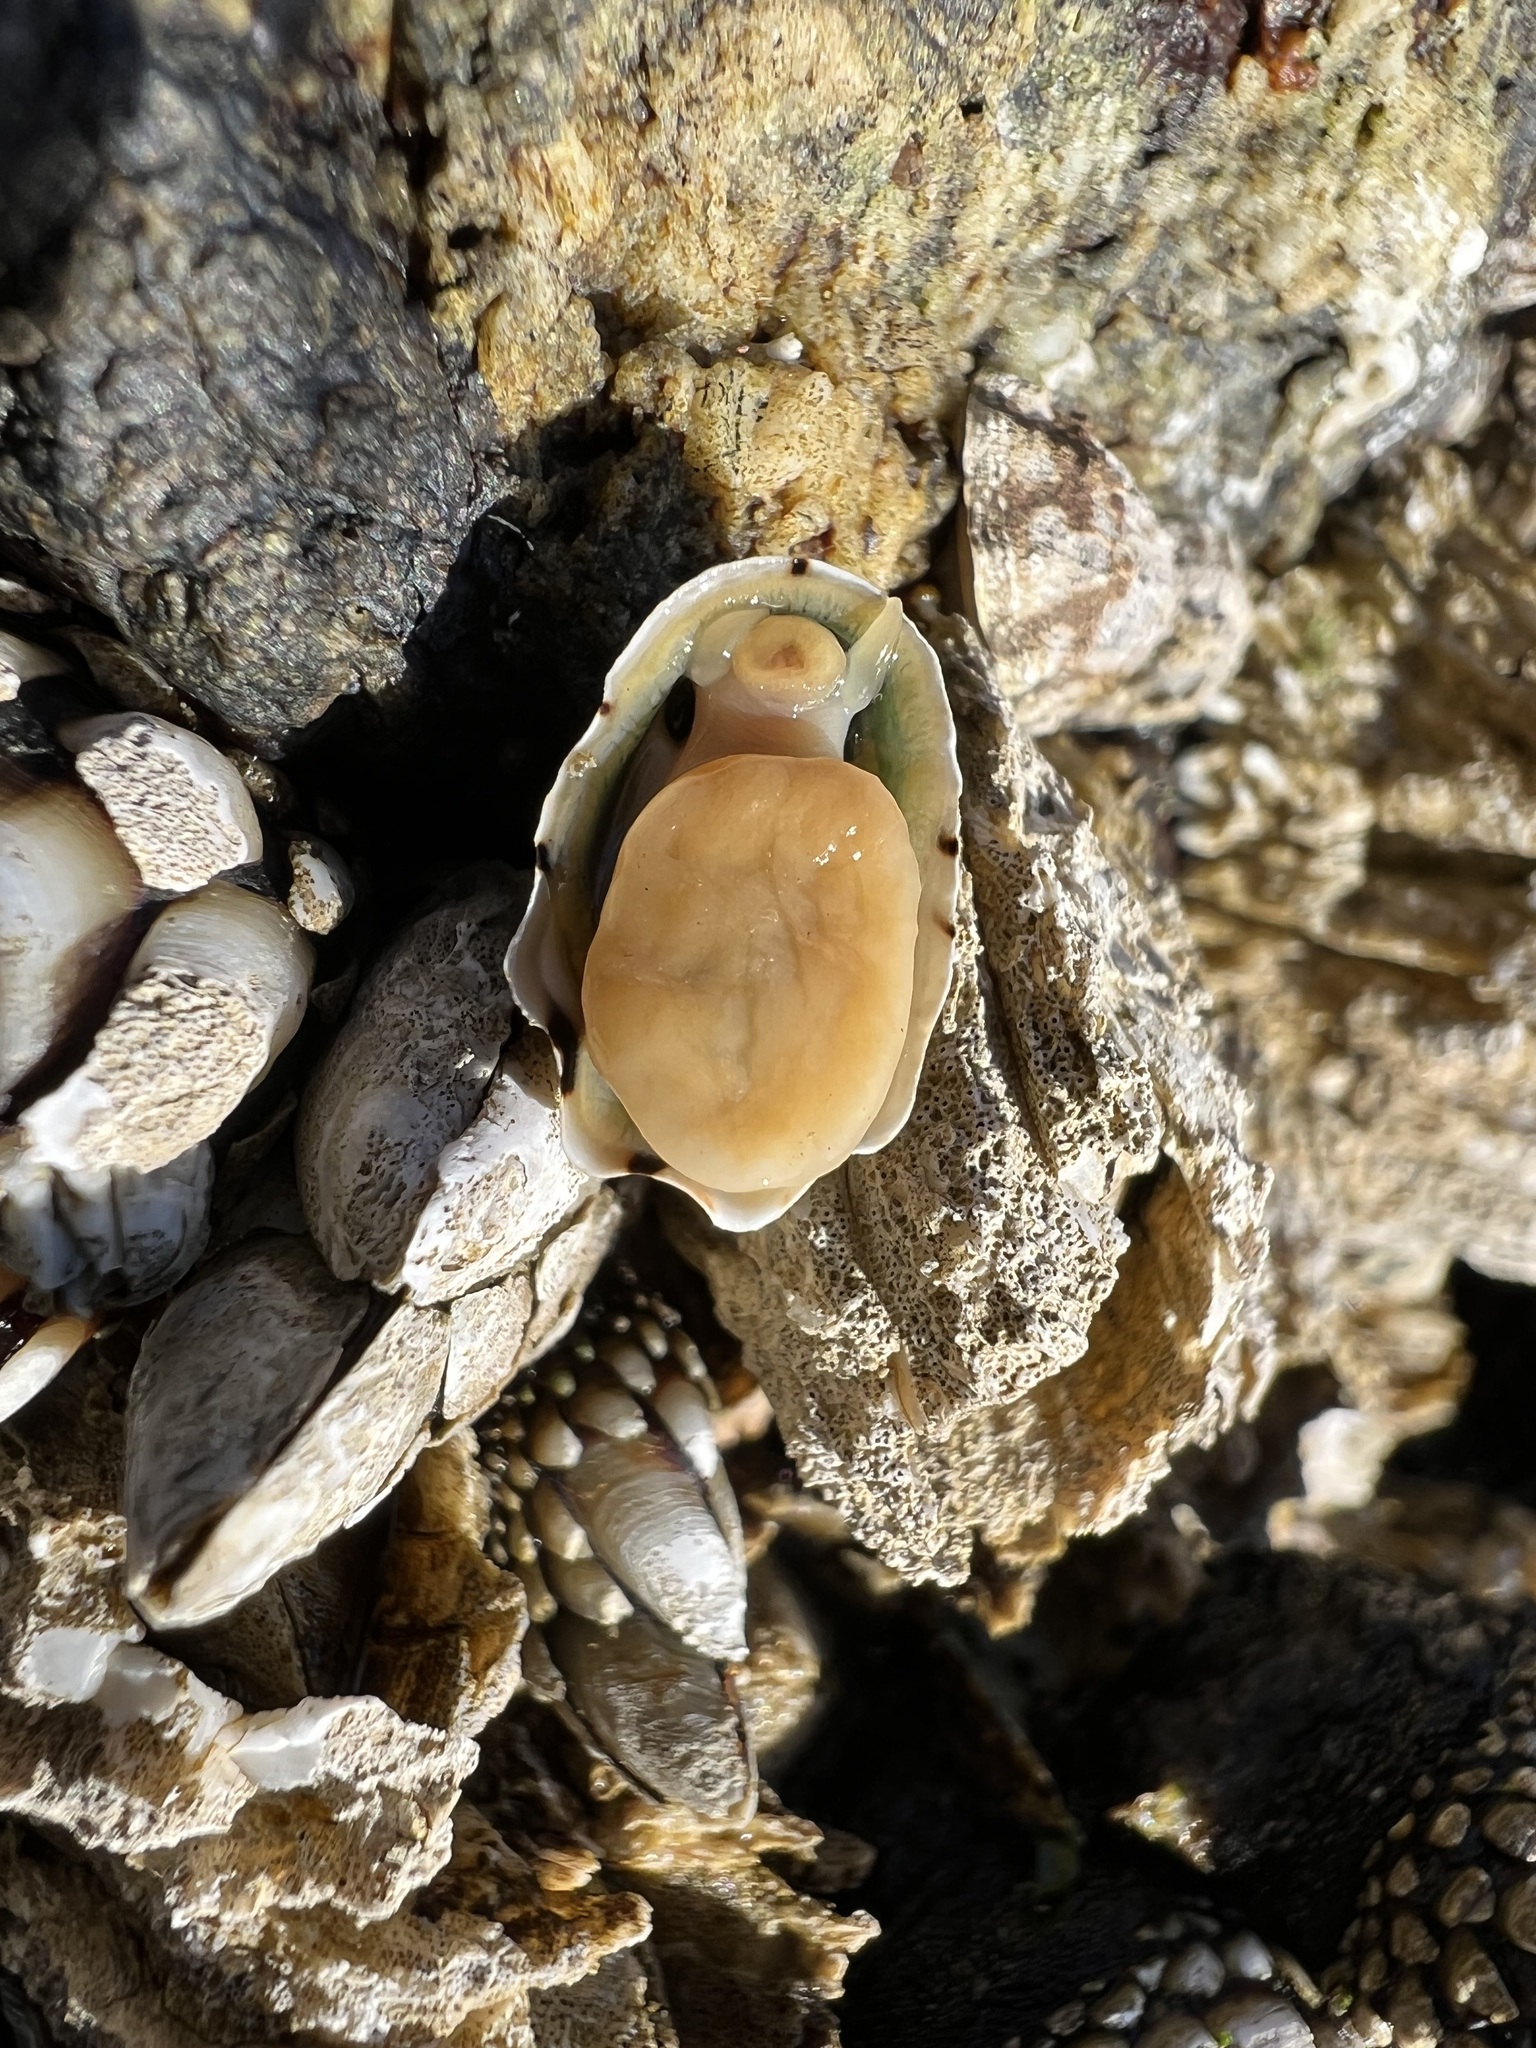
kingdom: Animalia
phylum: Mollusca
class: Gastropoda
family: Lottiidae
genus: Lottia
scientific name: Lottia digitalis
